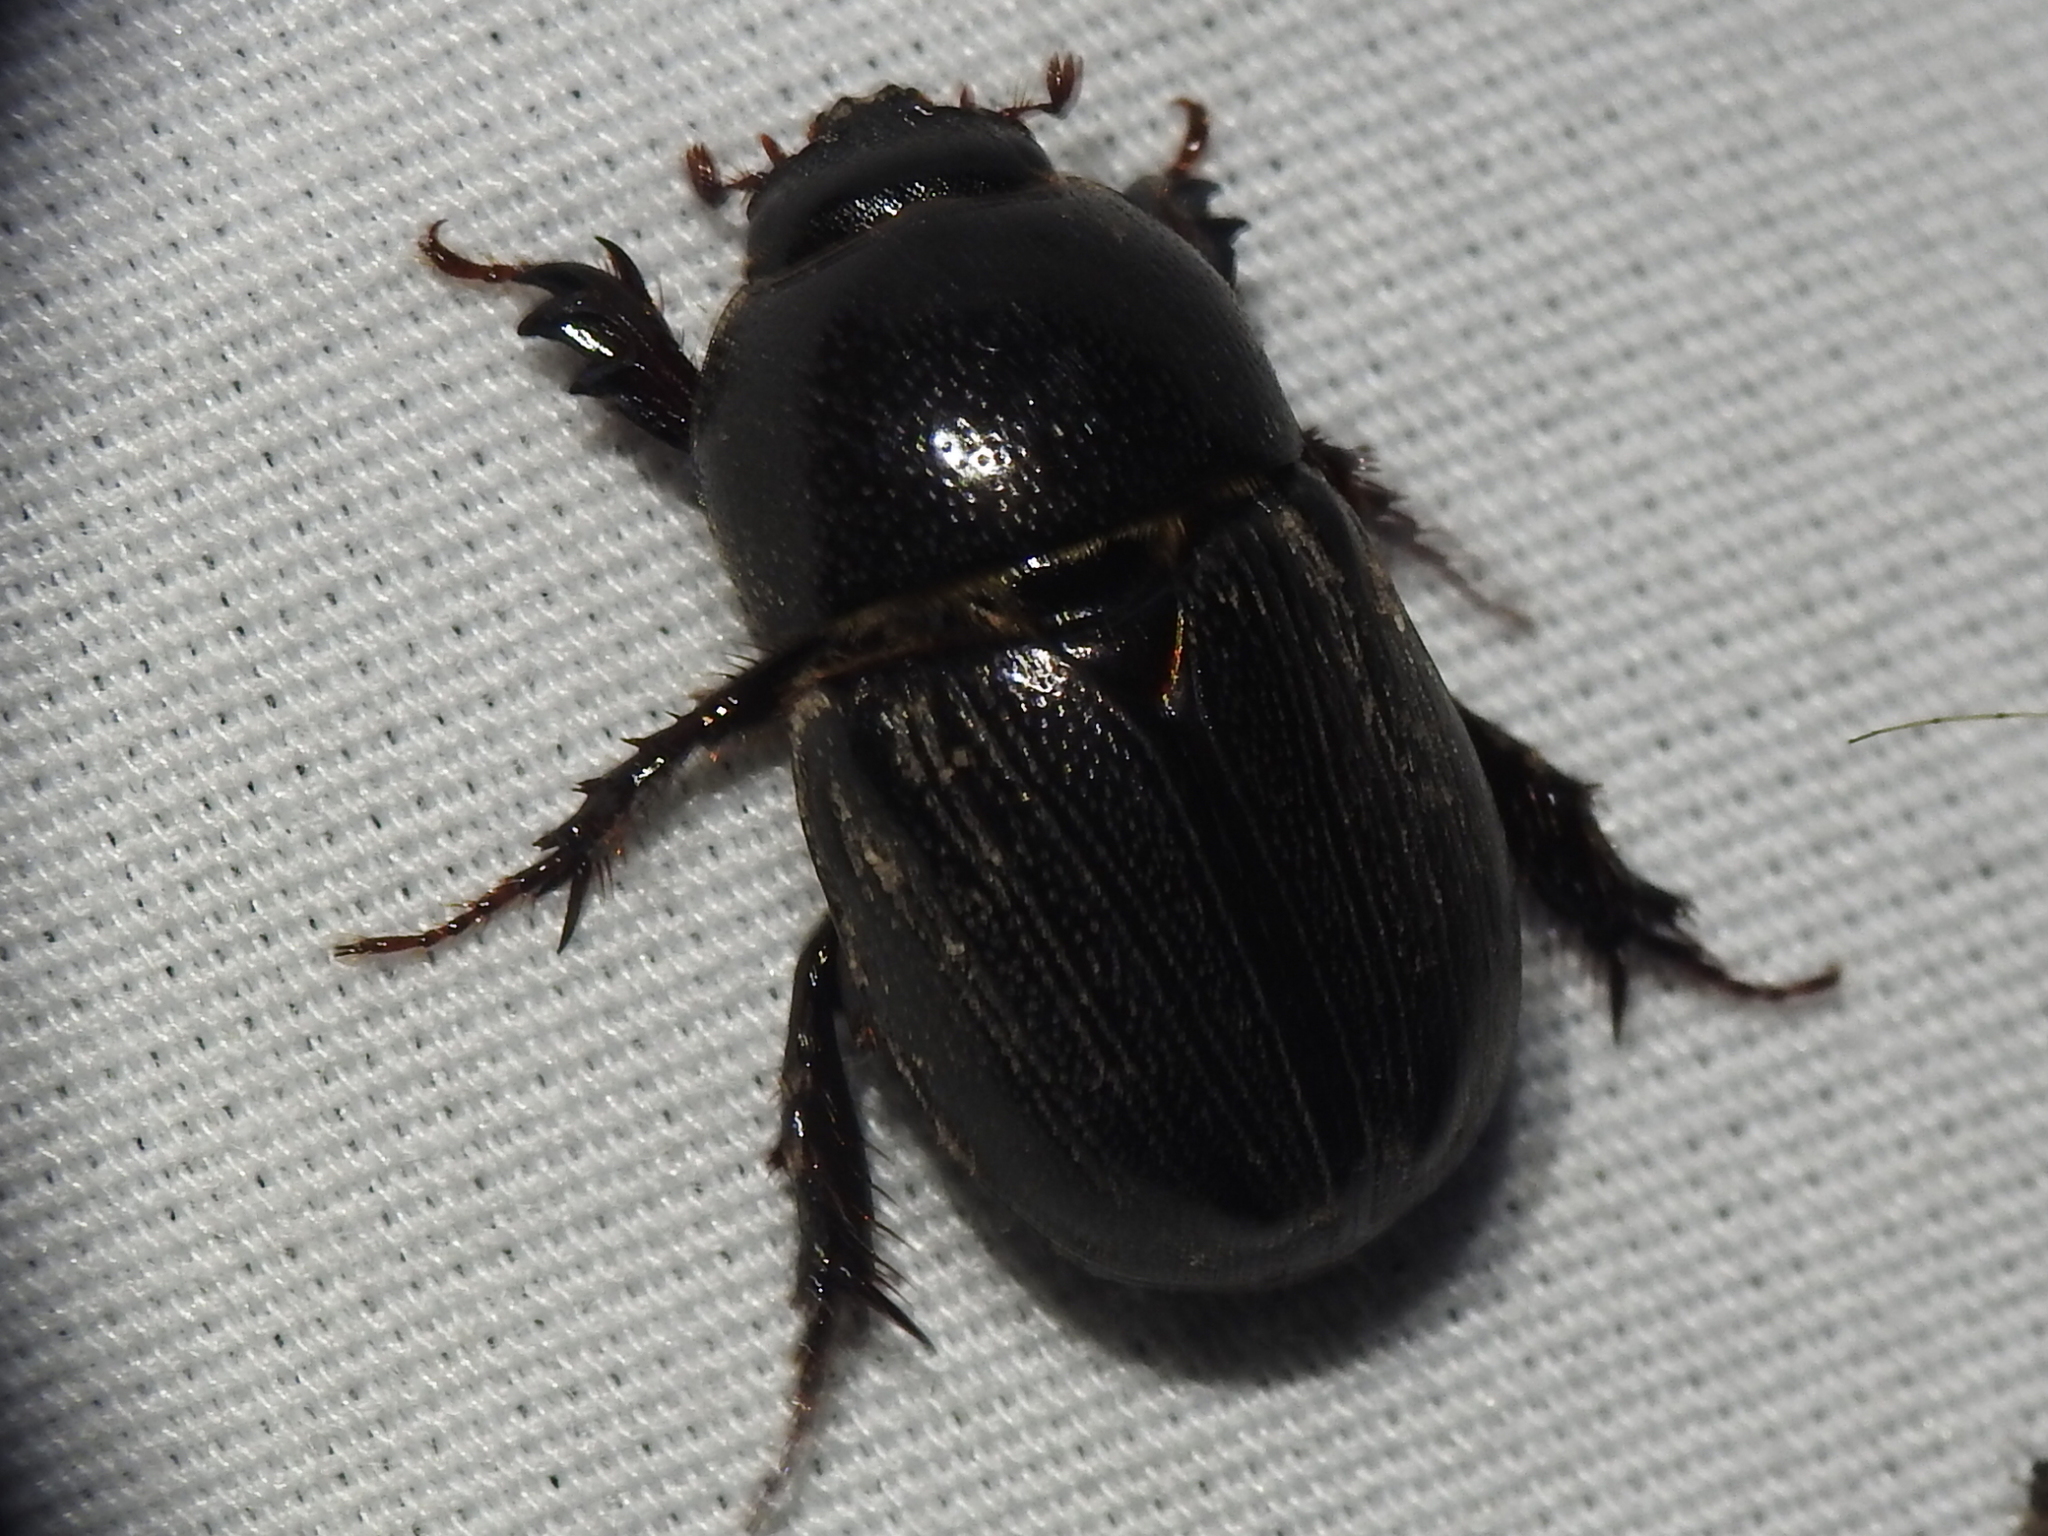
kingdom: Animalia
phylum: Arthropoda
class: Insecta
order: Coleoptera
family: Scarabaeidae
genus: Euetheola
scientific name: Euetheola humilis
